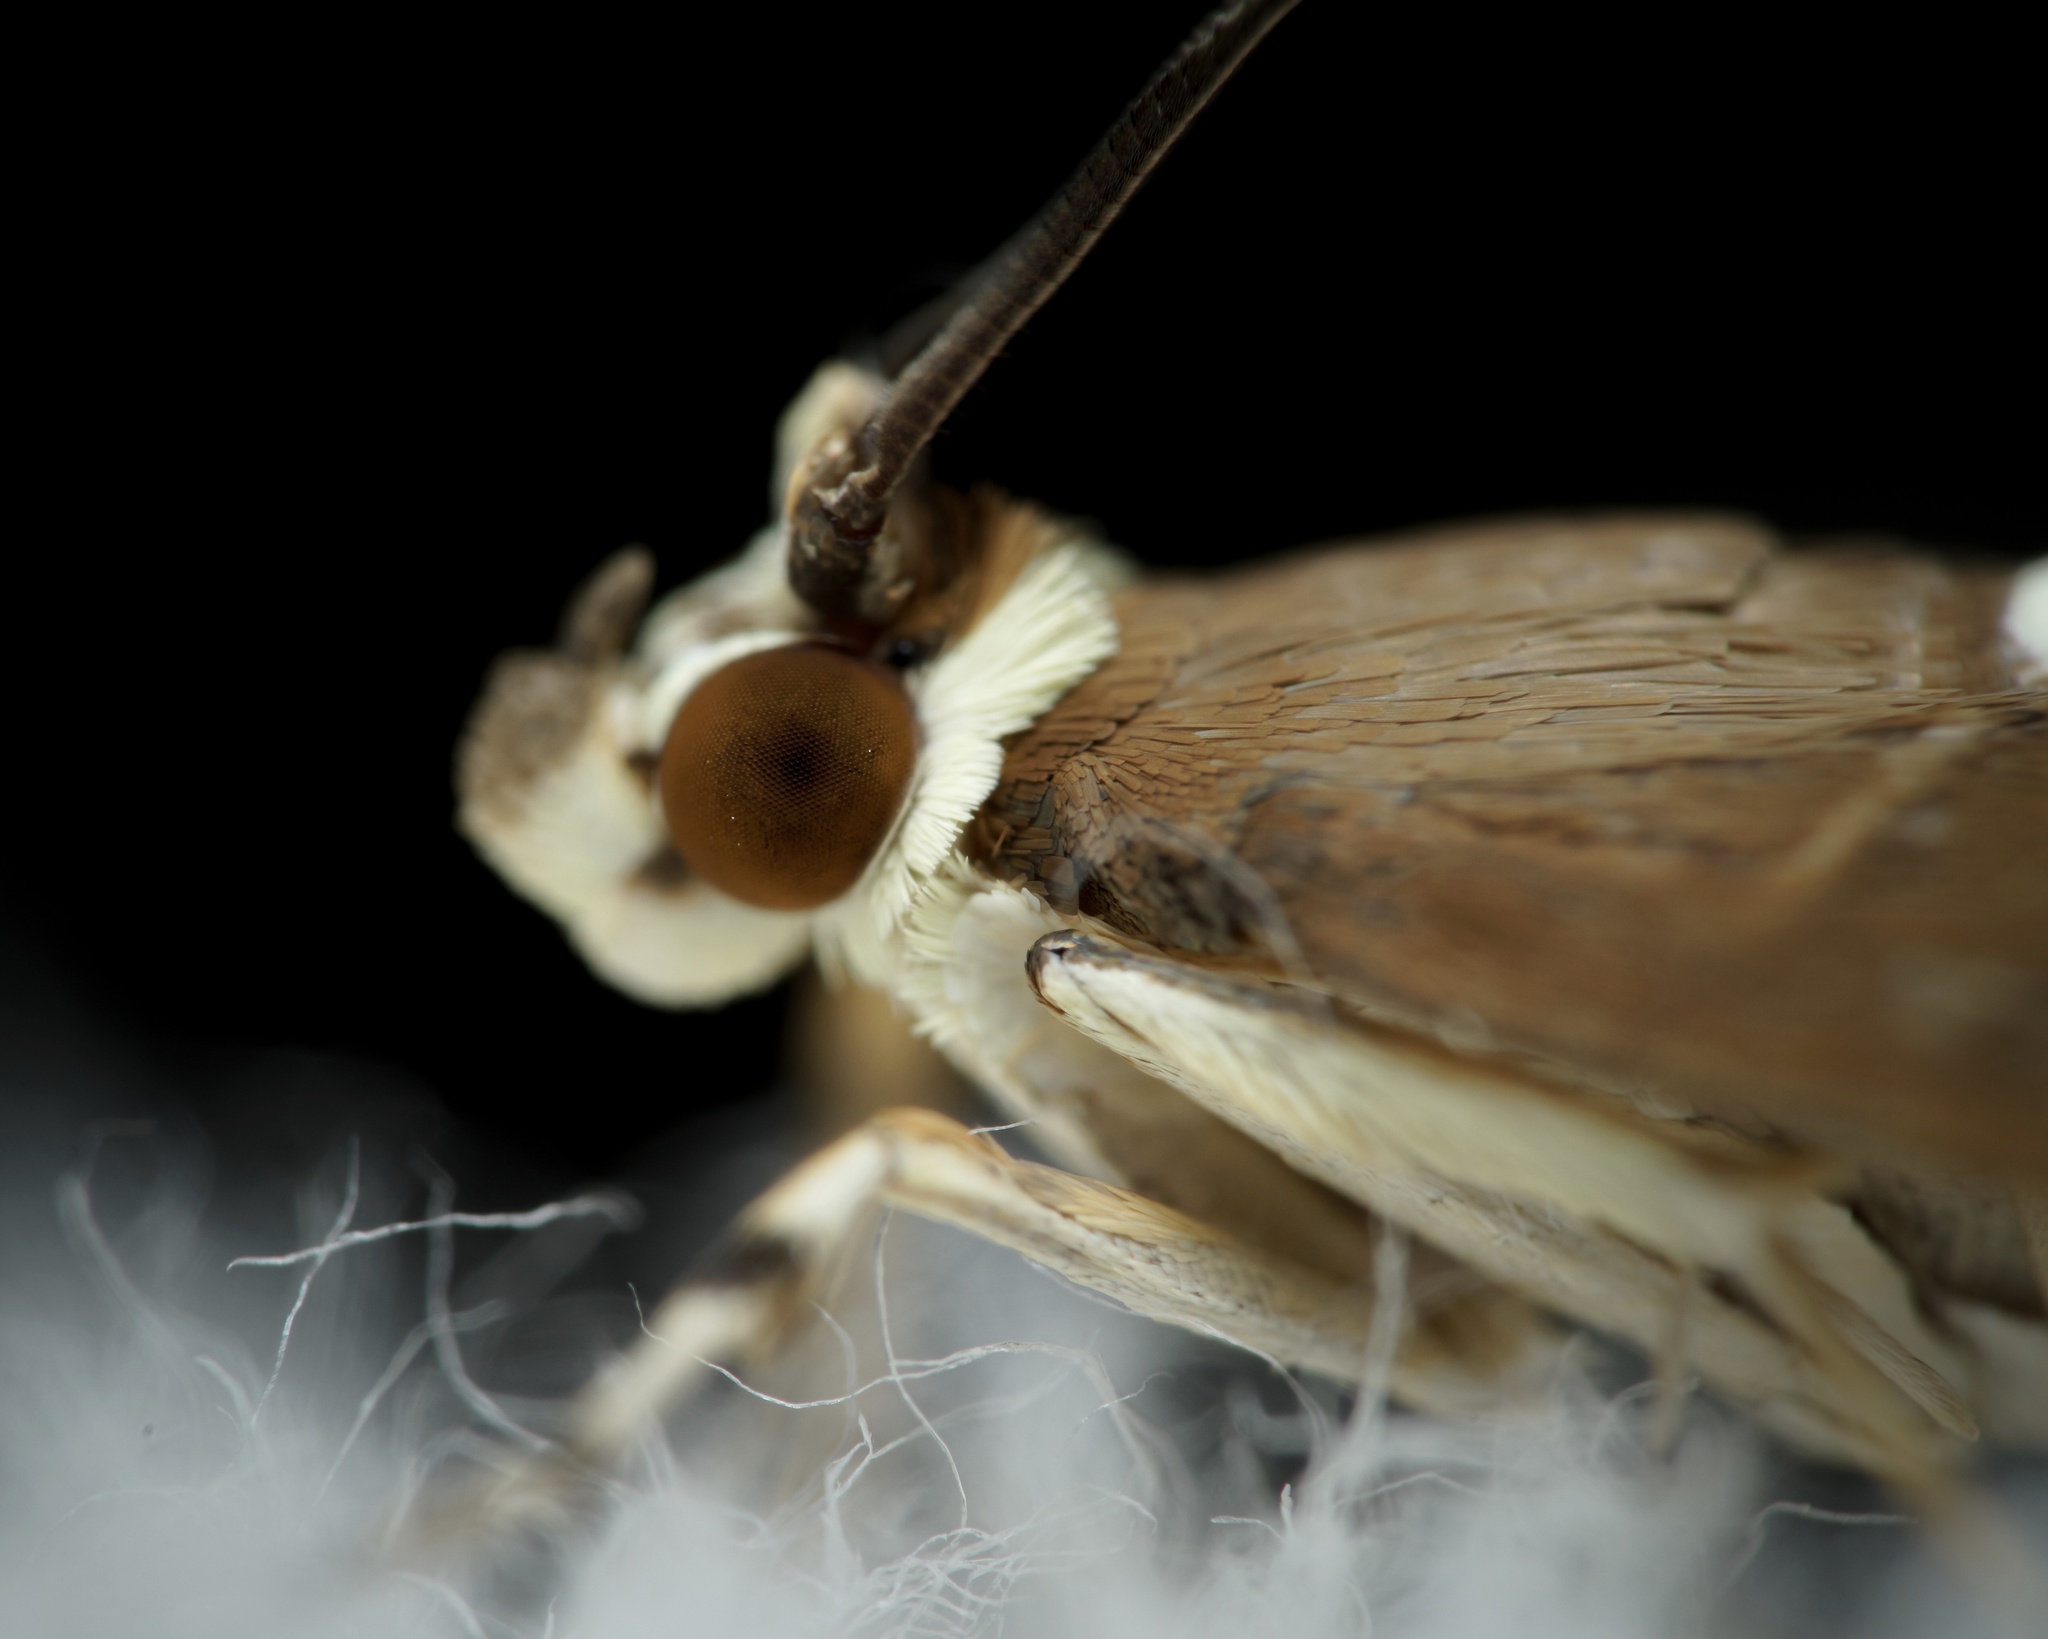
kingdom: Animalia
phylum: Arthropoda
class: Insecta
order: Lepidoptera
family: Crambidae
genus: Spoladea
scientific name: Spoladea recurvalis
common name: Beet webworm moth
